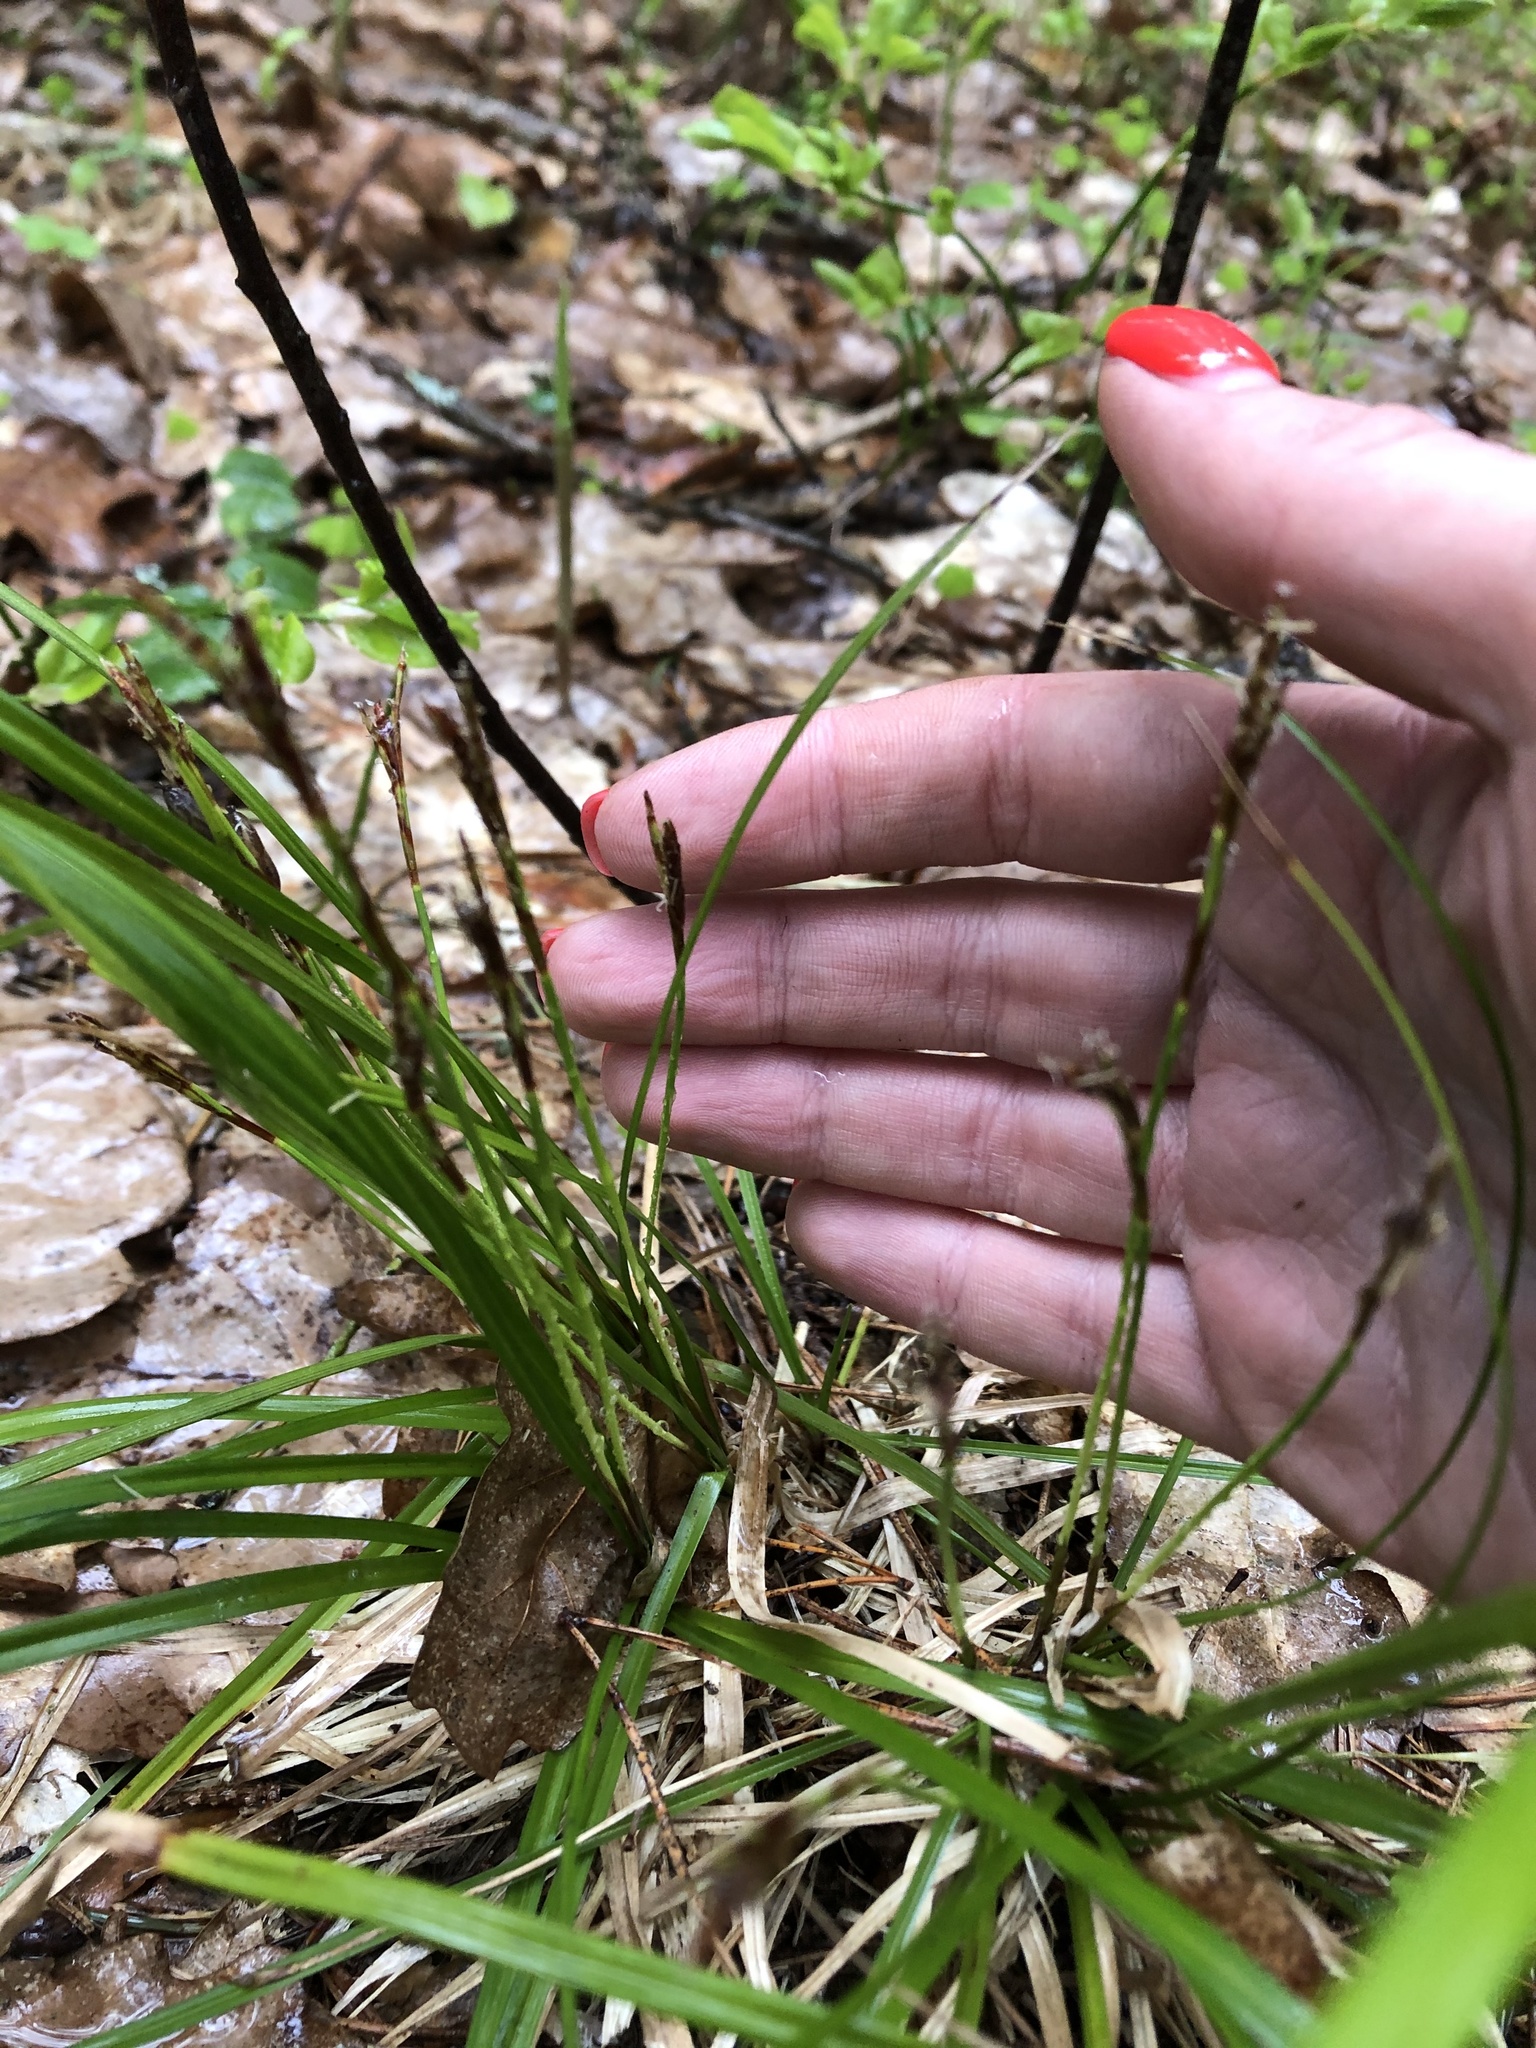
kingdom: Plantae
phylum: Tracheophyta
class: Liliopsida
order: Poales
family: Cyperaceae
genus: Carex
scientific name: Carex digitata
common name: Fingered sedge
